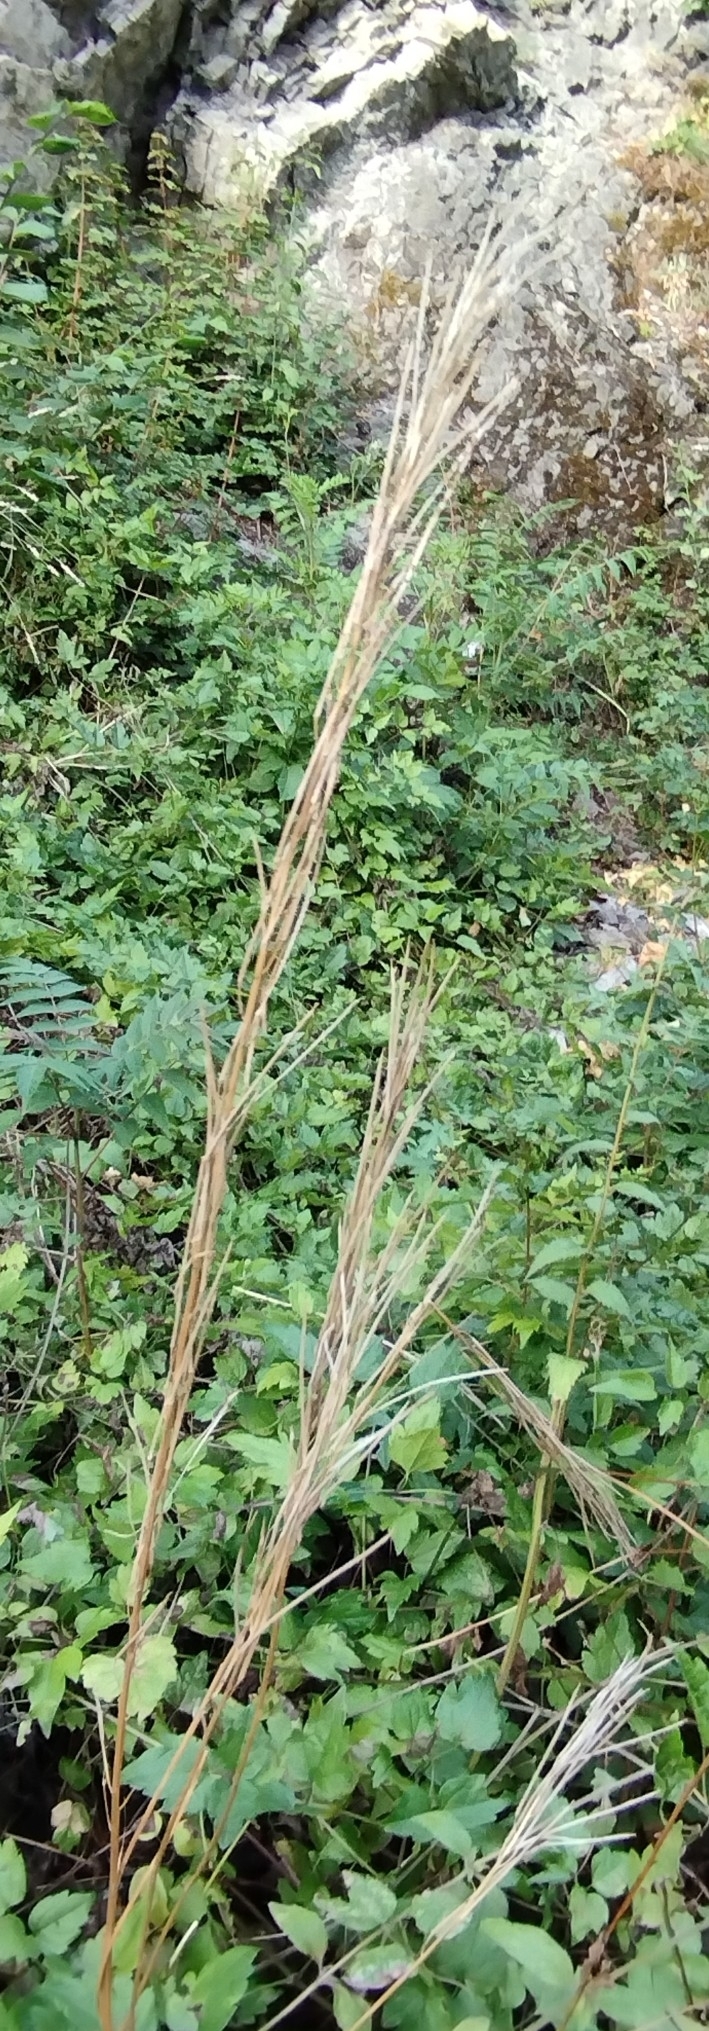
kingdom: Plantae
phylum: Tracheophyta
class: Magnoliopsida
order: Brassicales
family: Brassicaceae
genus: Turritis
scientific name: Turritis glabra
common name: Tower rockcress
